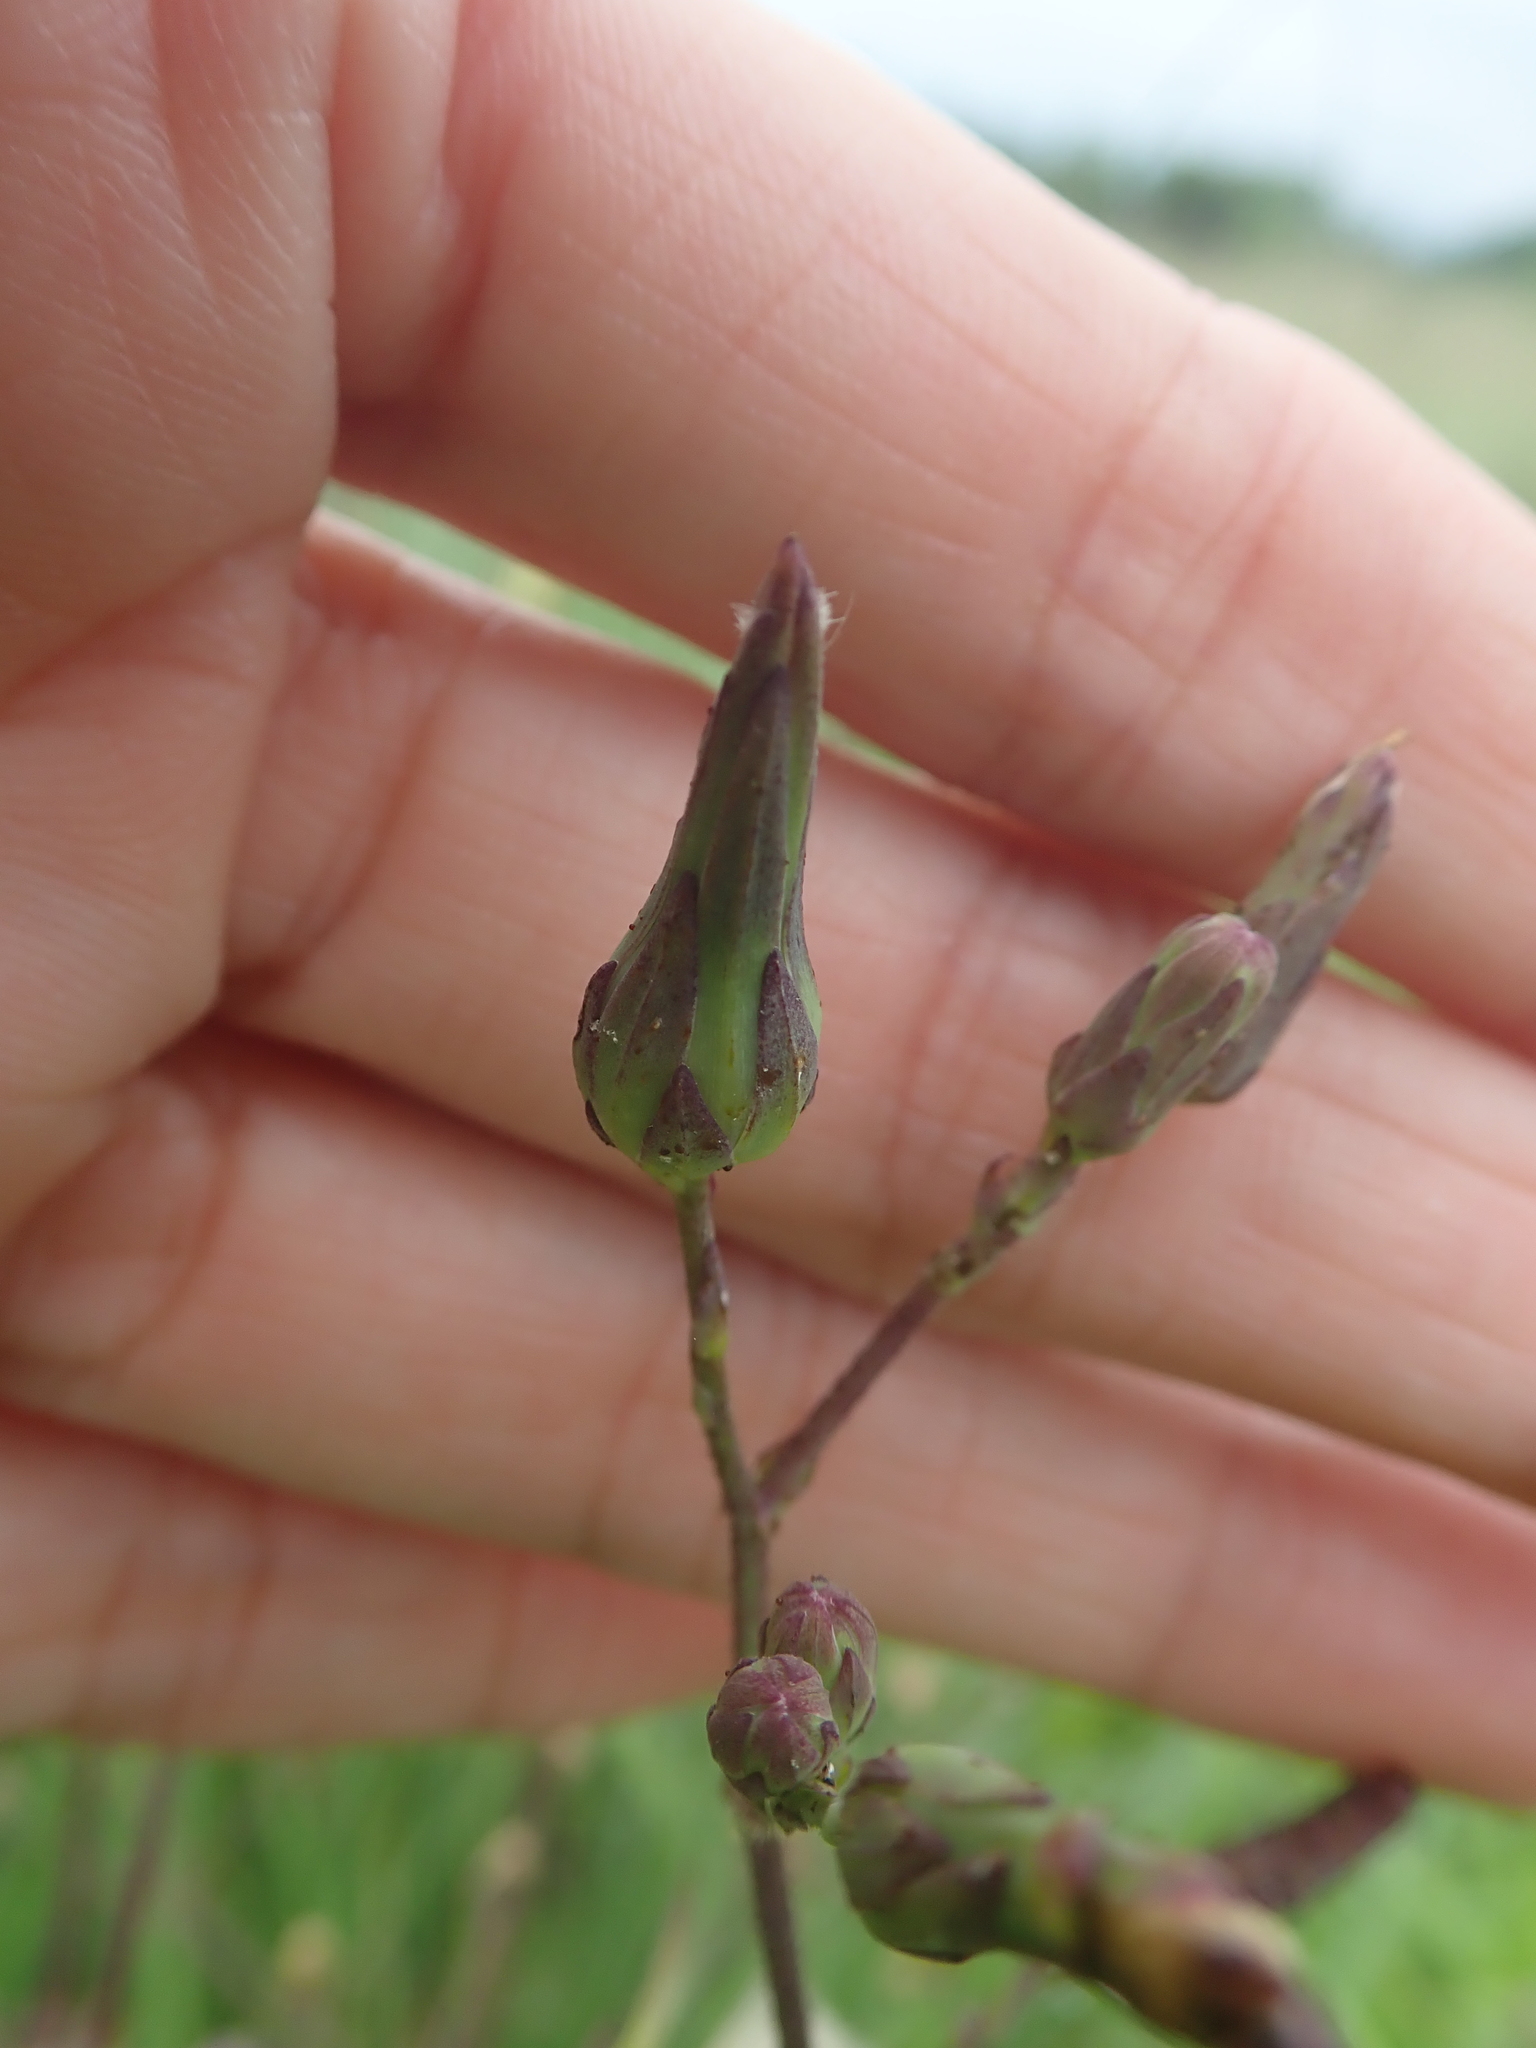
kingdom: Plantae
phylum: Tracheophyta
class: Magnoliopsida
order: Asterales
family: Asteraceae
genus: Lactuca
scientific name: Lactuca formosana
